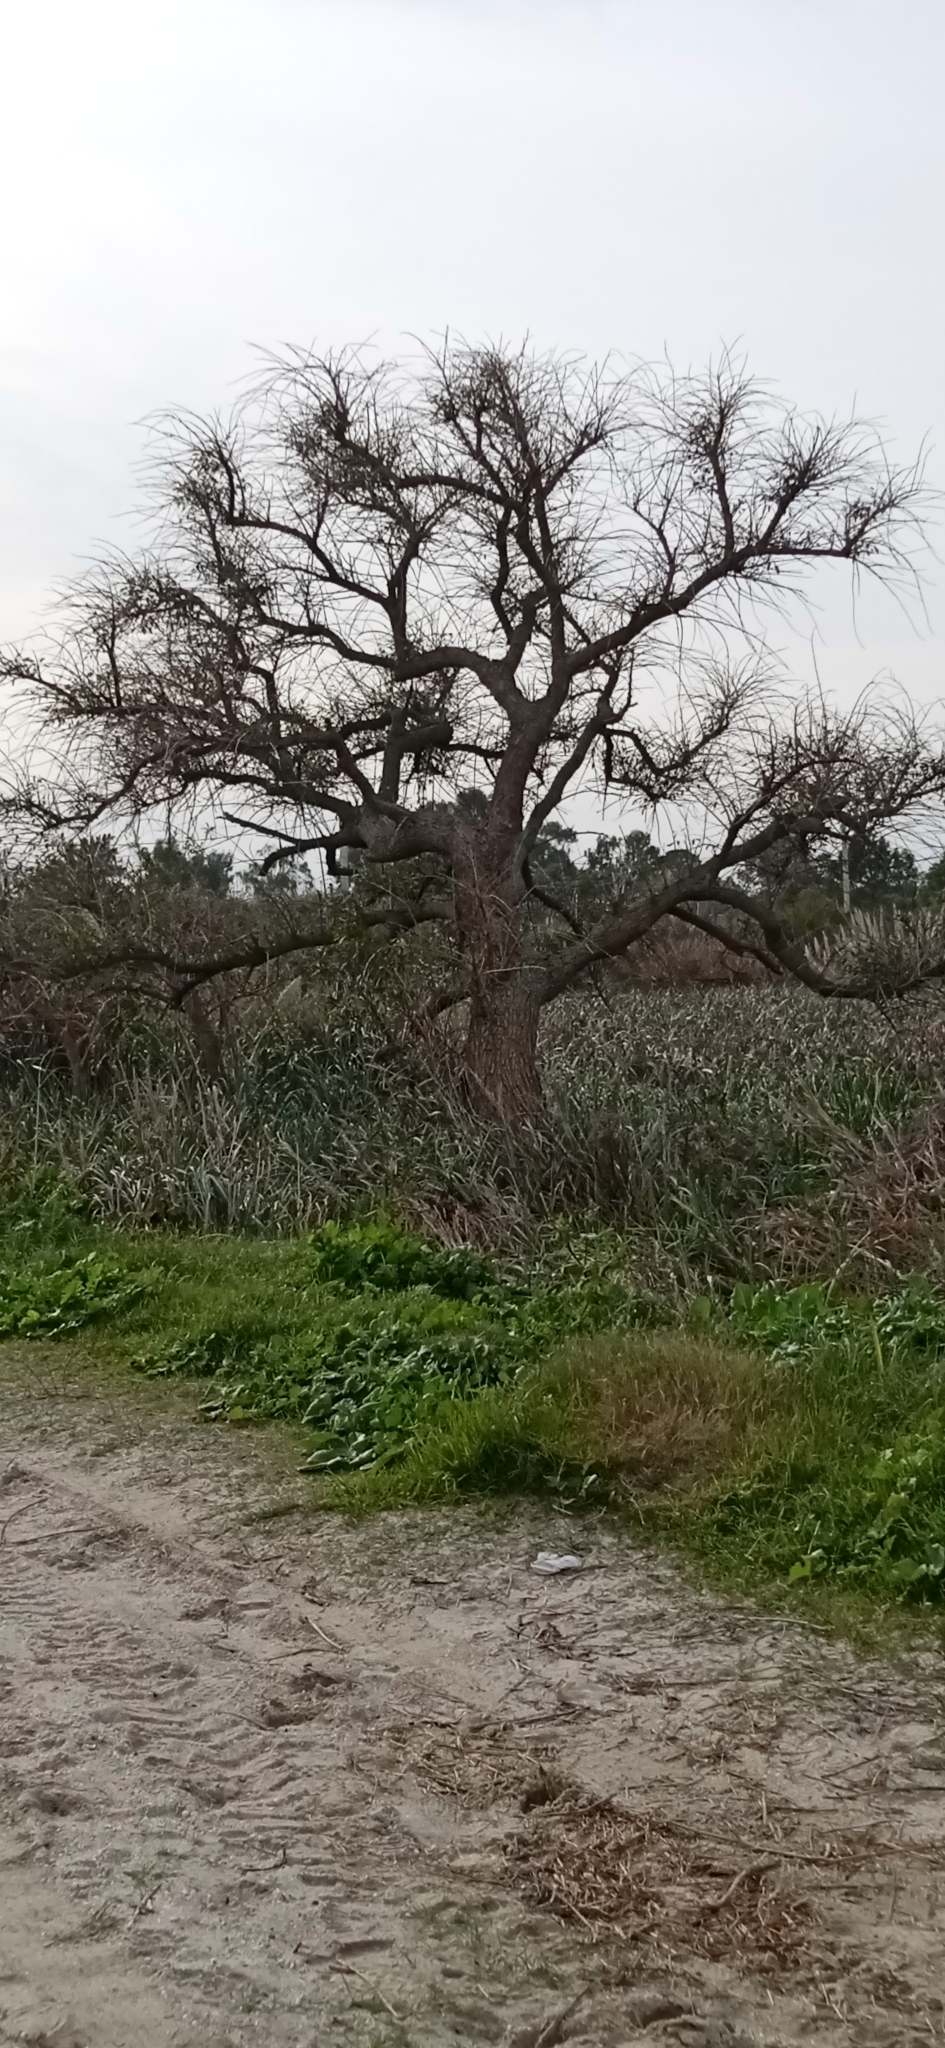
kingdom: Plantae
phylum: Tracheophyta
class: Magnoliopsida
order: Fabales
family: Fabaceae
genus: Erythrina
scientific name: Erythrina crista-galli
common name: Cockspur coral tree
